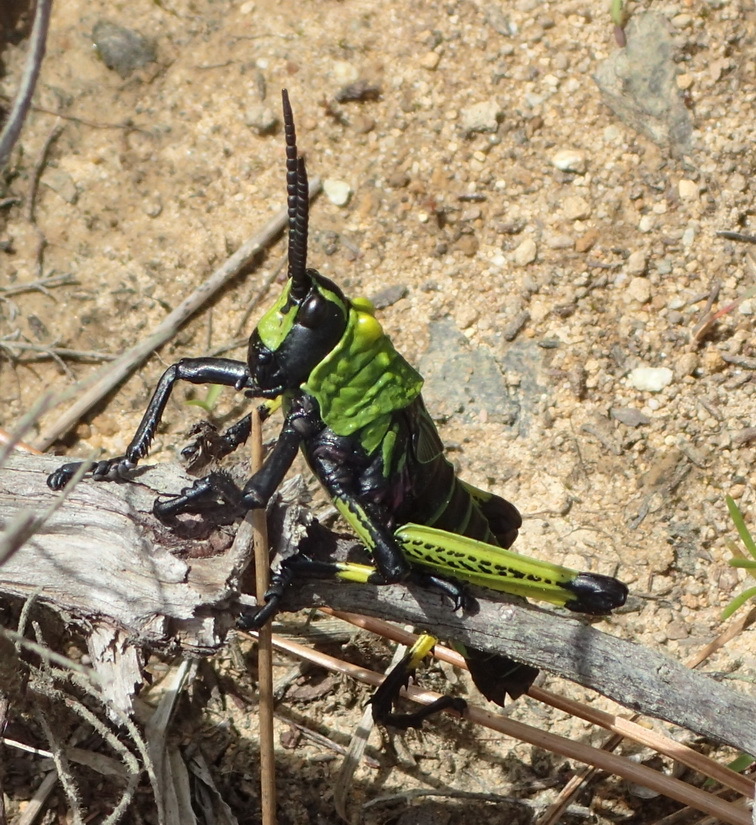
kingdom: Animalia
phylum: Arthropoda
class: Insecta
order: Orthoptera
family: Pyrgomorphidae
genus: Phymateus
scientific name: Phymateus leprosus
